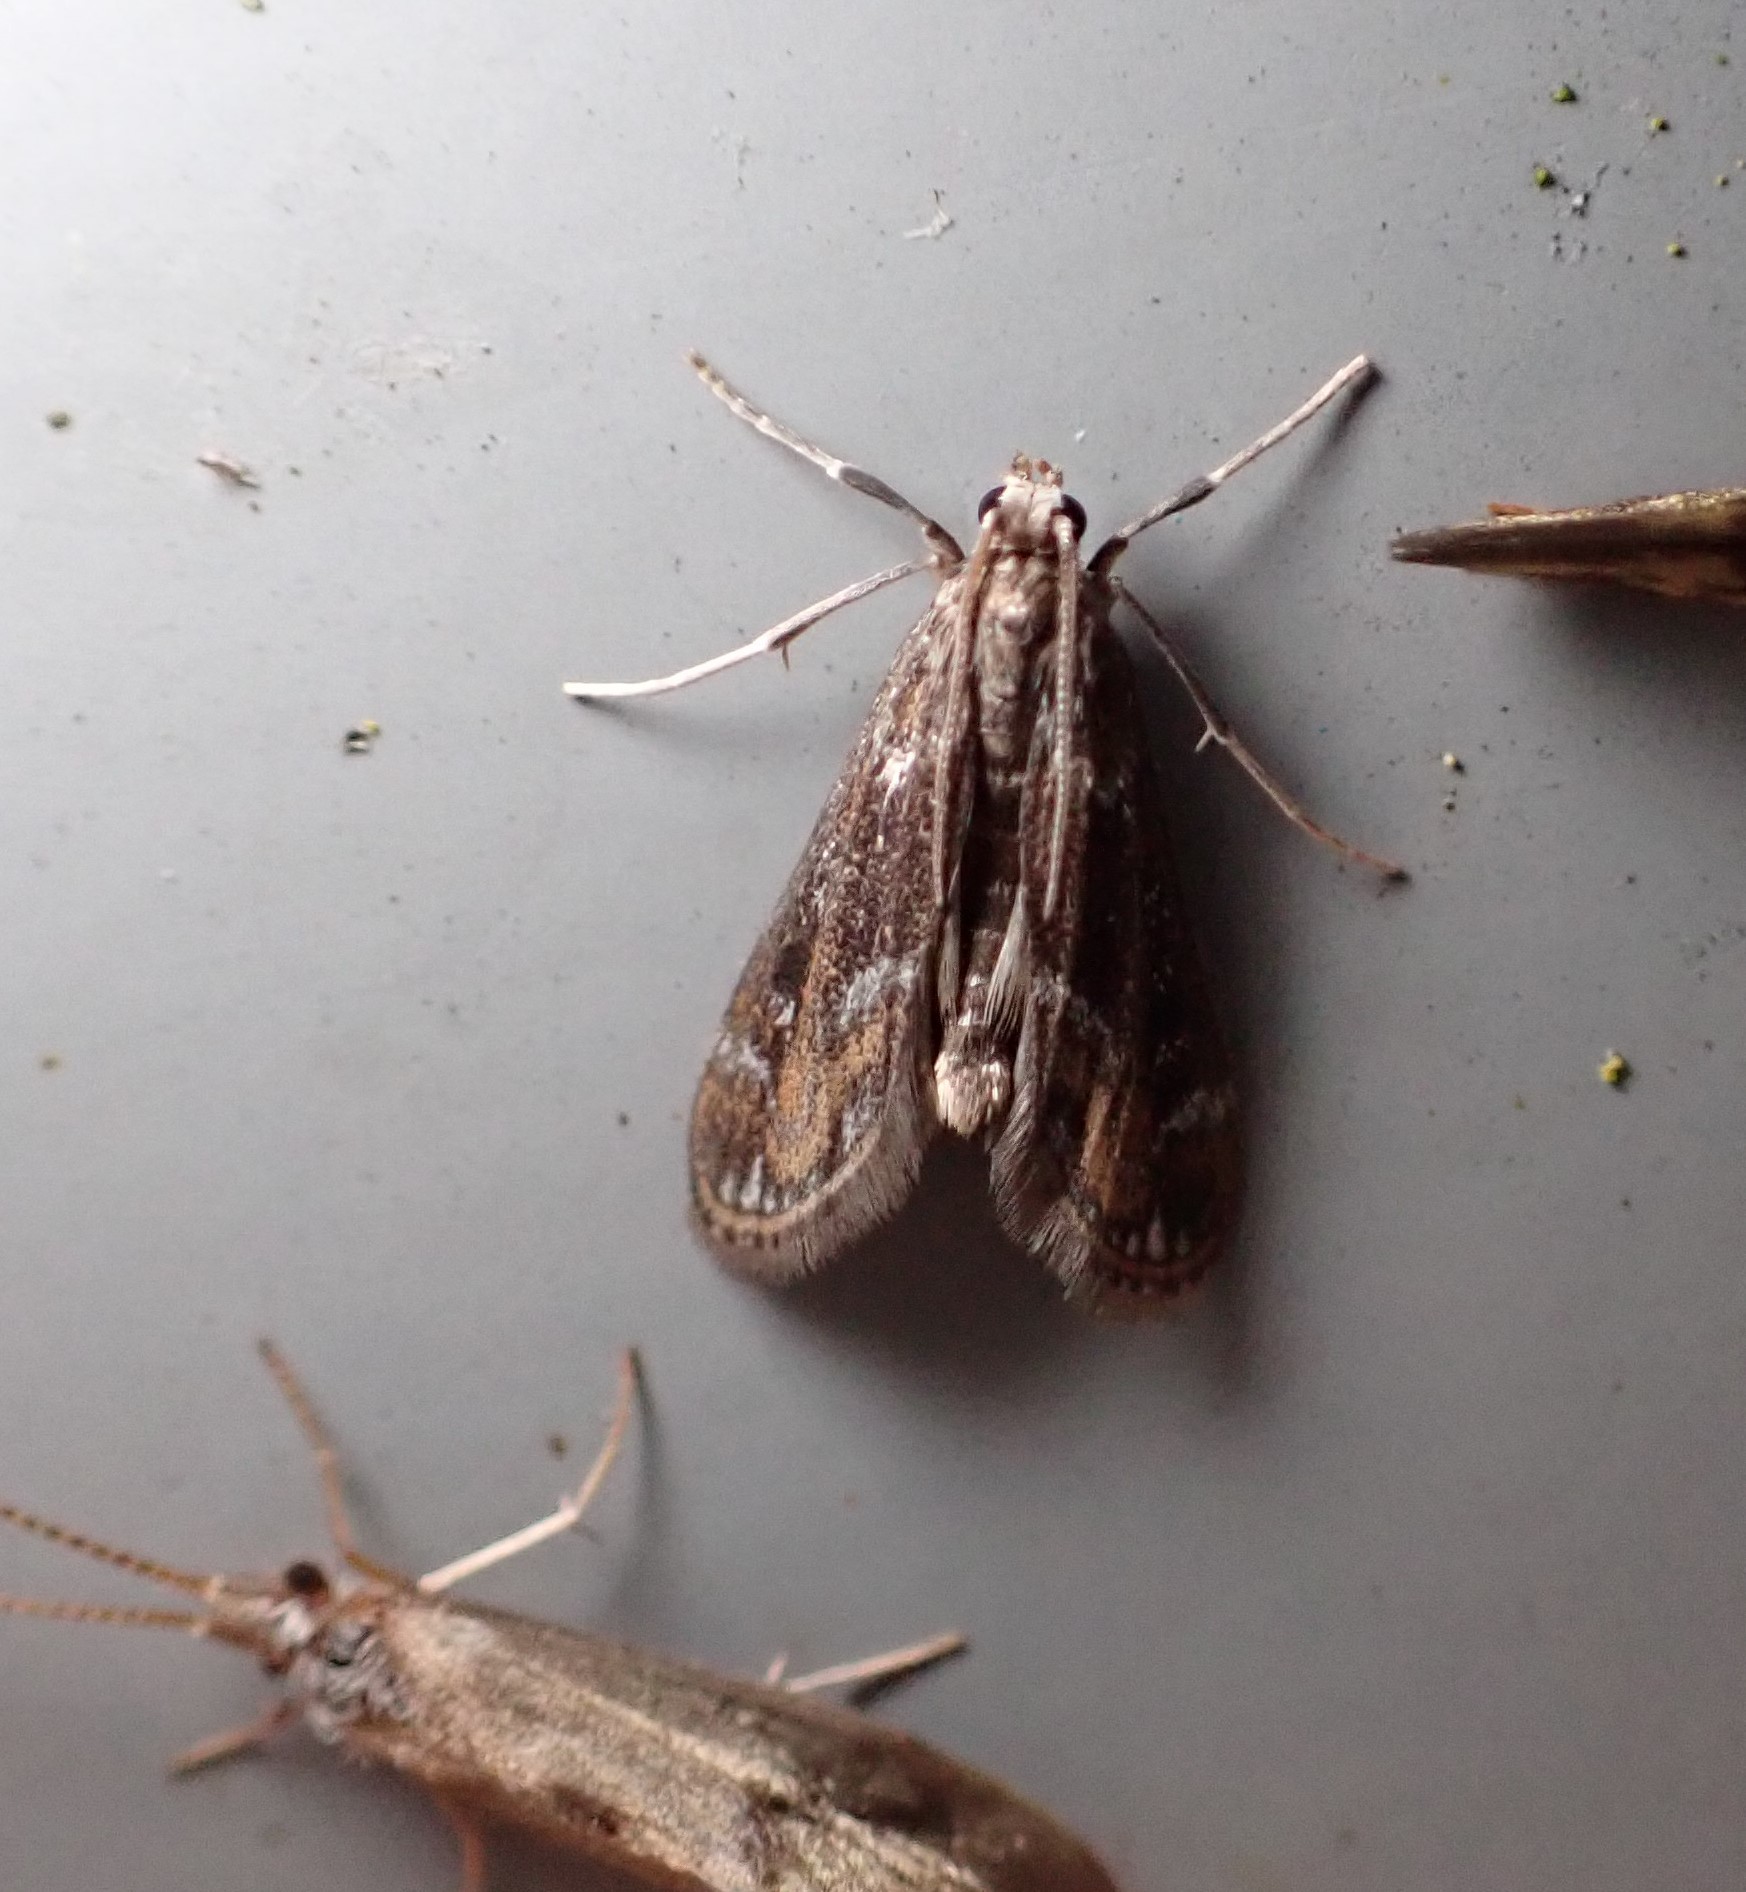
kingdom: Animalia
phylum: Arthropoda
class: Insecta
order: Lepidoptera
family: Crambidae
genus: Hygraula
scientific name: Hygraula nitens
